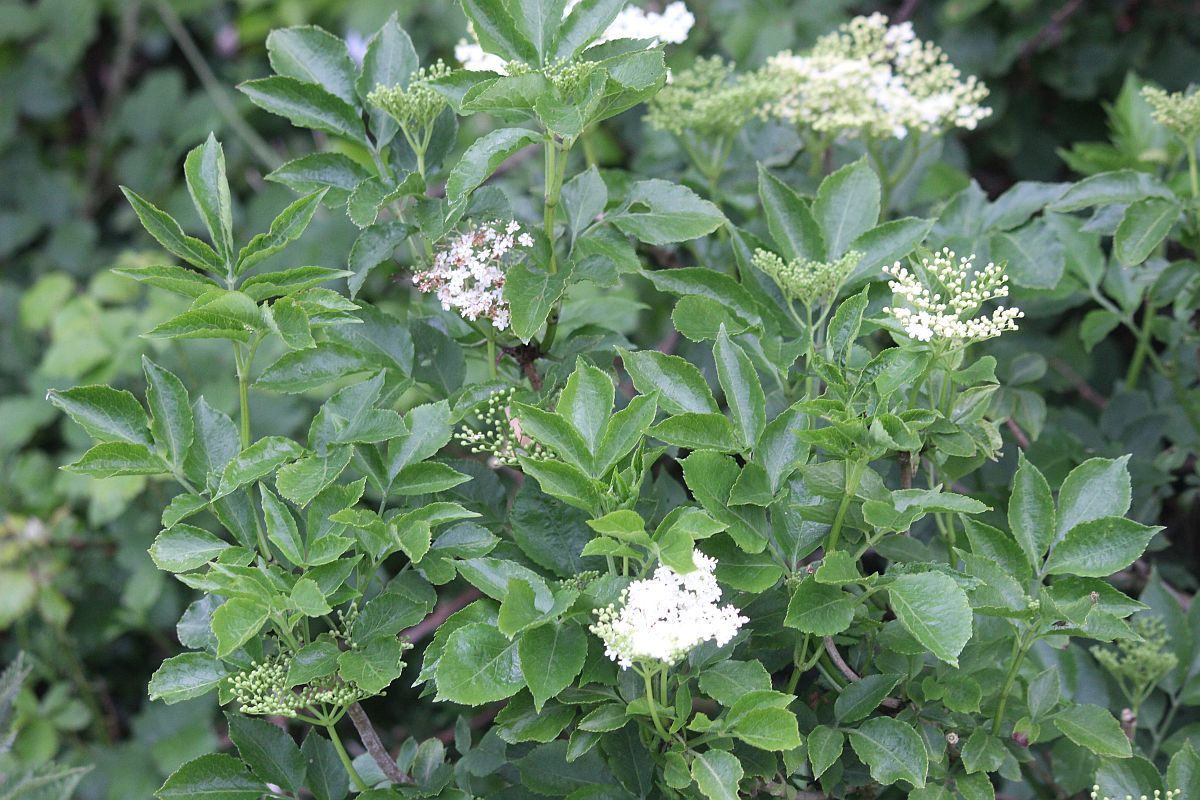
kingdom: Plantae
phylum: Tracheophyta
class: Magnoliopsida
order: Dipsacales
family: Viburnaceae
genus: Sambucus
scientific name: Sambucus nigra
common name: Elder
